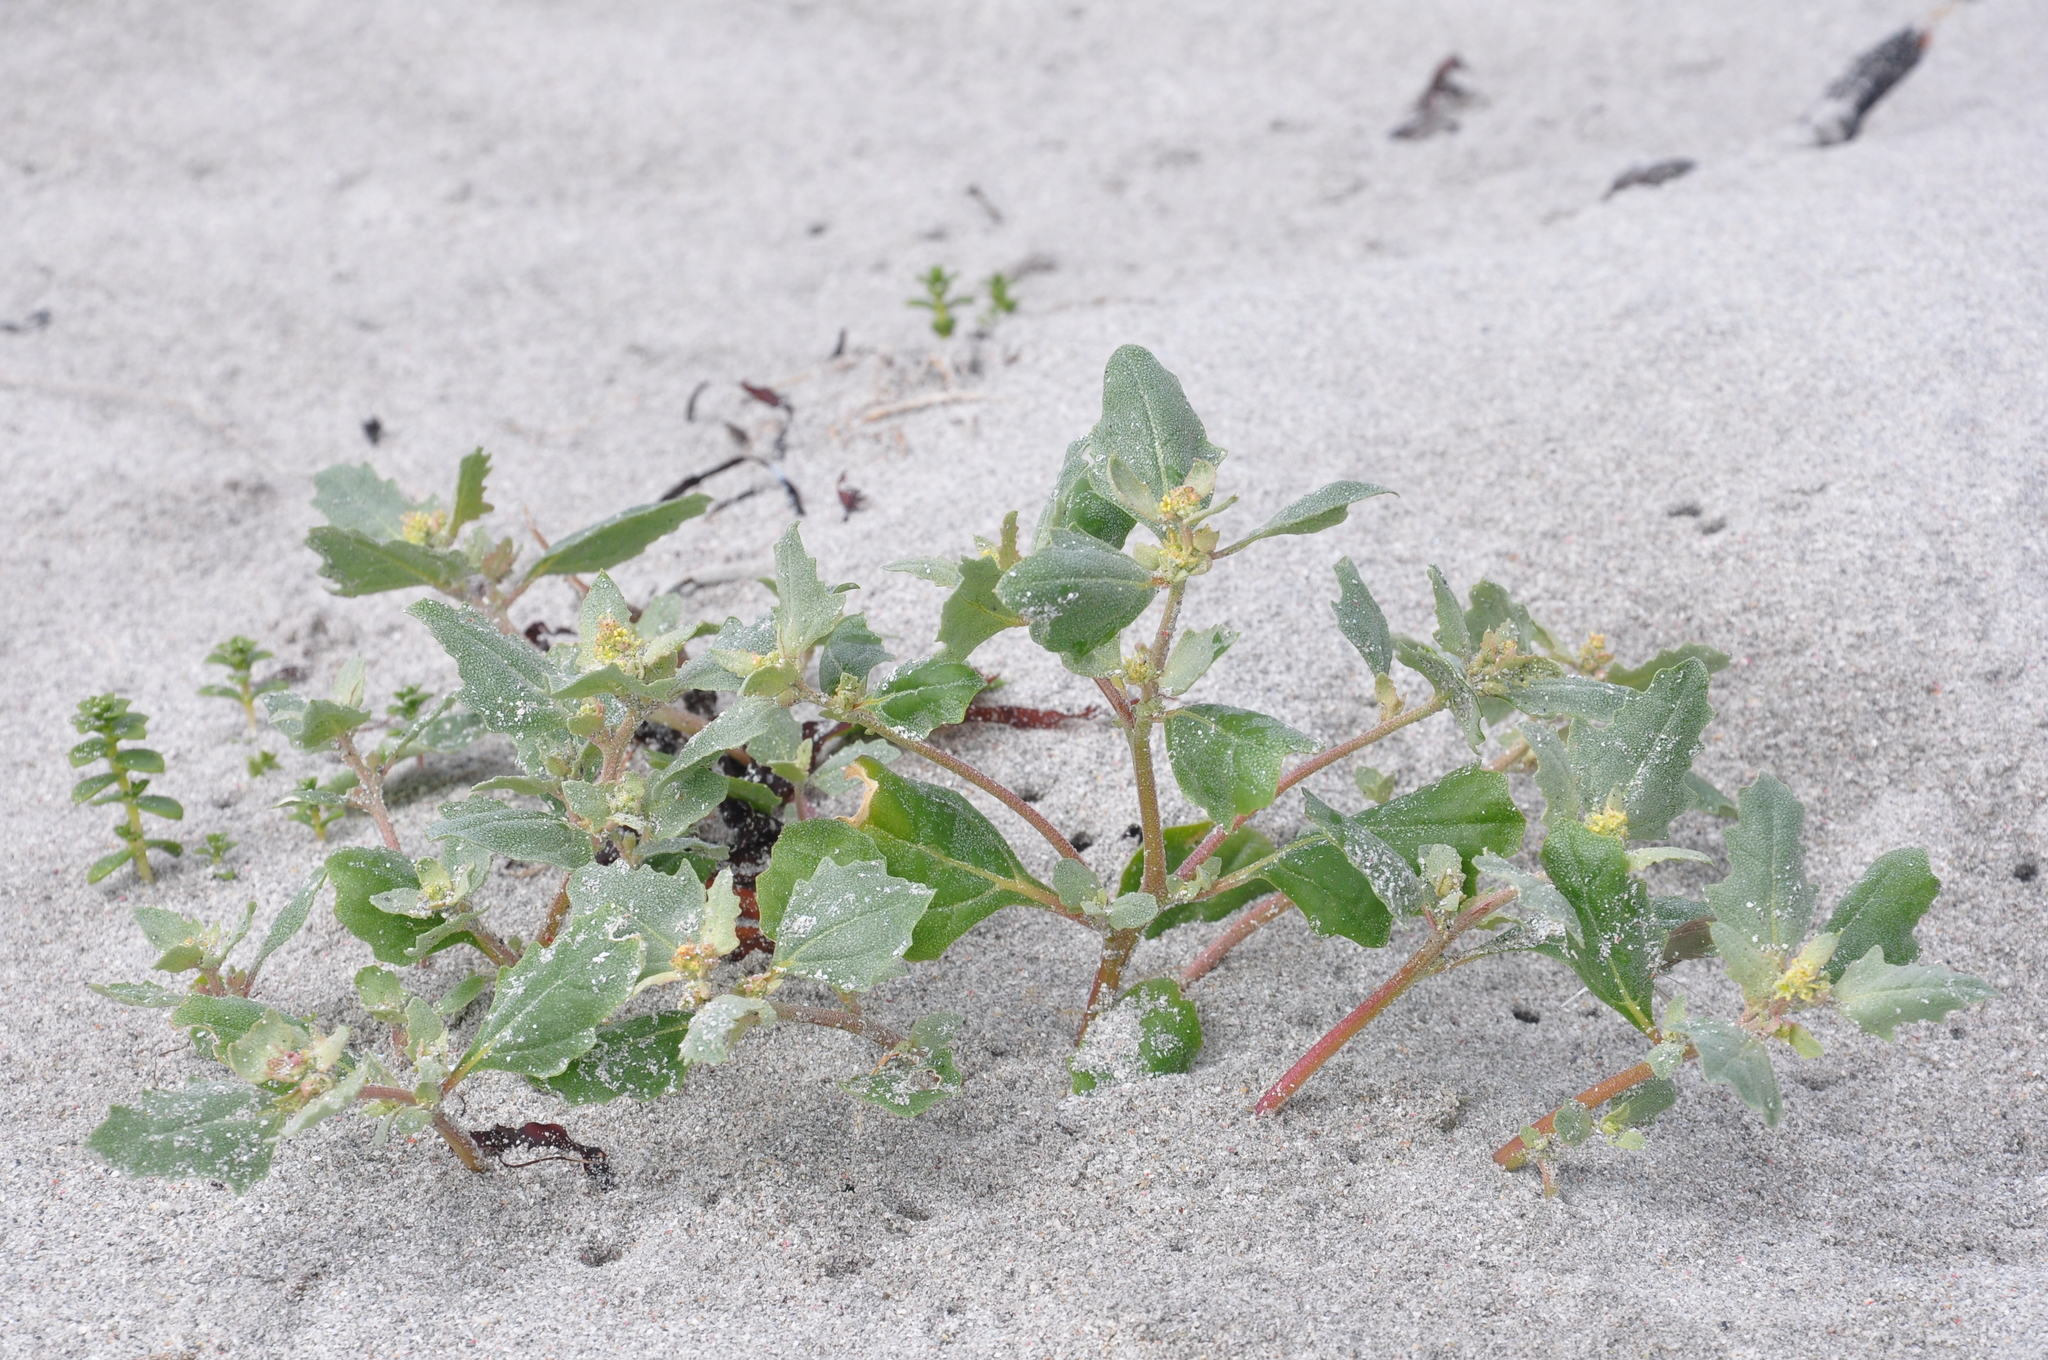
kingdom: Plantae
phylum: Tracheophyta
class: Magnoliopsida
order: Caryophyllales
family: Amaranthaceae
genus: Atriplex
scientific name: Atriplex laciniata
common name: Frosted orache
